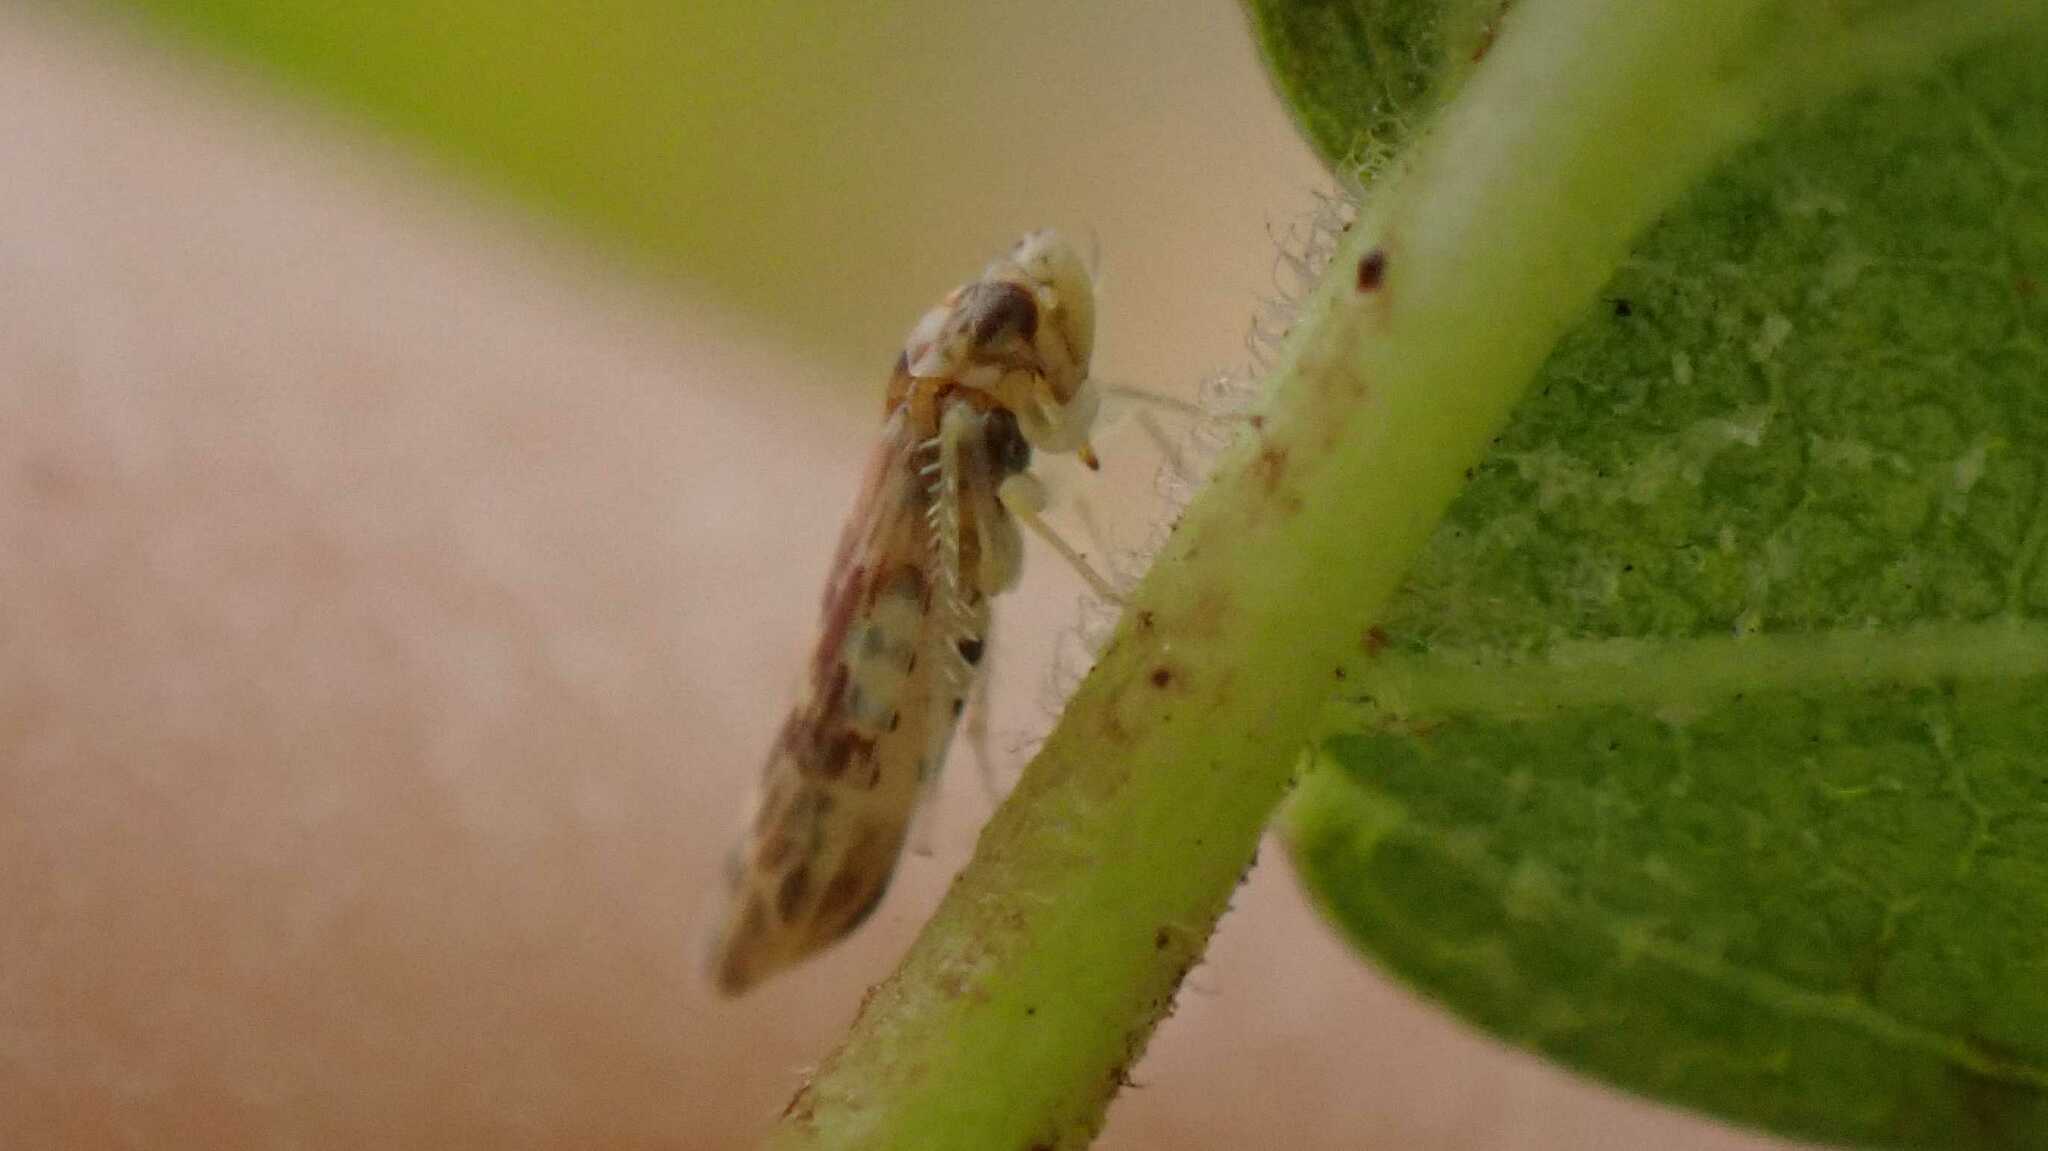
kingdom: Animalia
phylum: Arthropoda
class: Insecta
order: Hemiptera
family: Cicadellidae
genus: Tautoneura
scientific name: Tautoneura polymitusa
